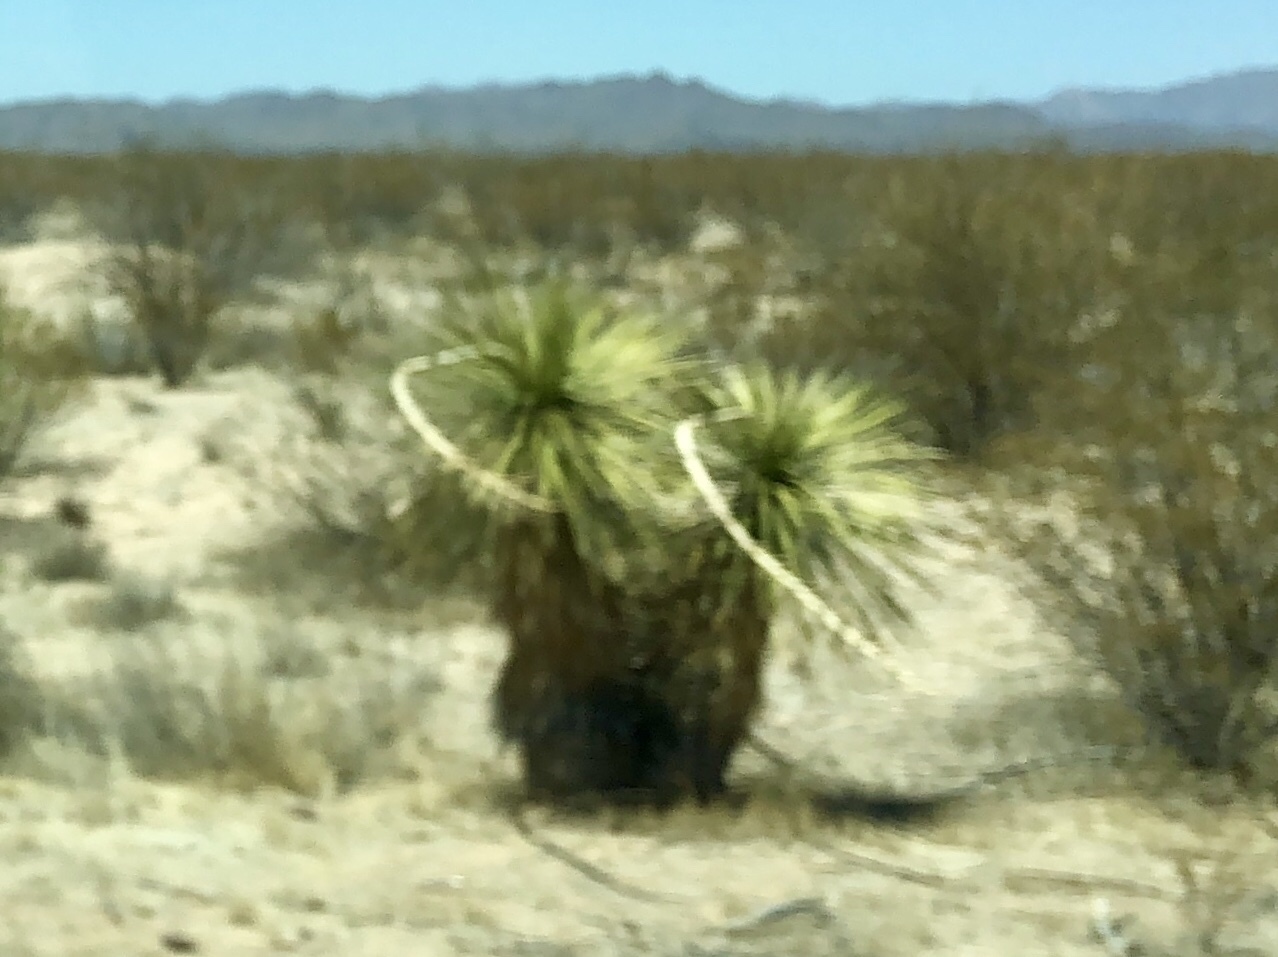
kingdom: Plantae
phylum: Tracheophyta
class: Liliopsida
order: Asparagales
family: Asparagaceae
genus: Yucca
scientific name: Yucca elata
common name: Palmella
